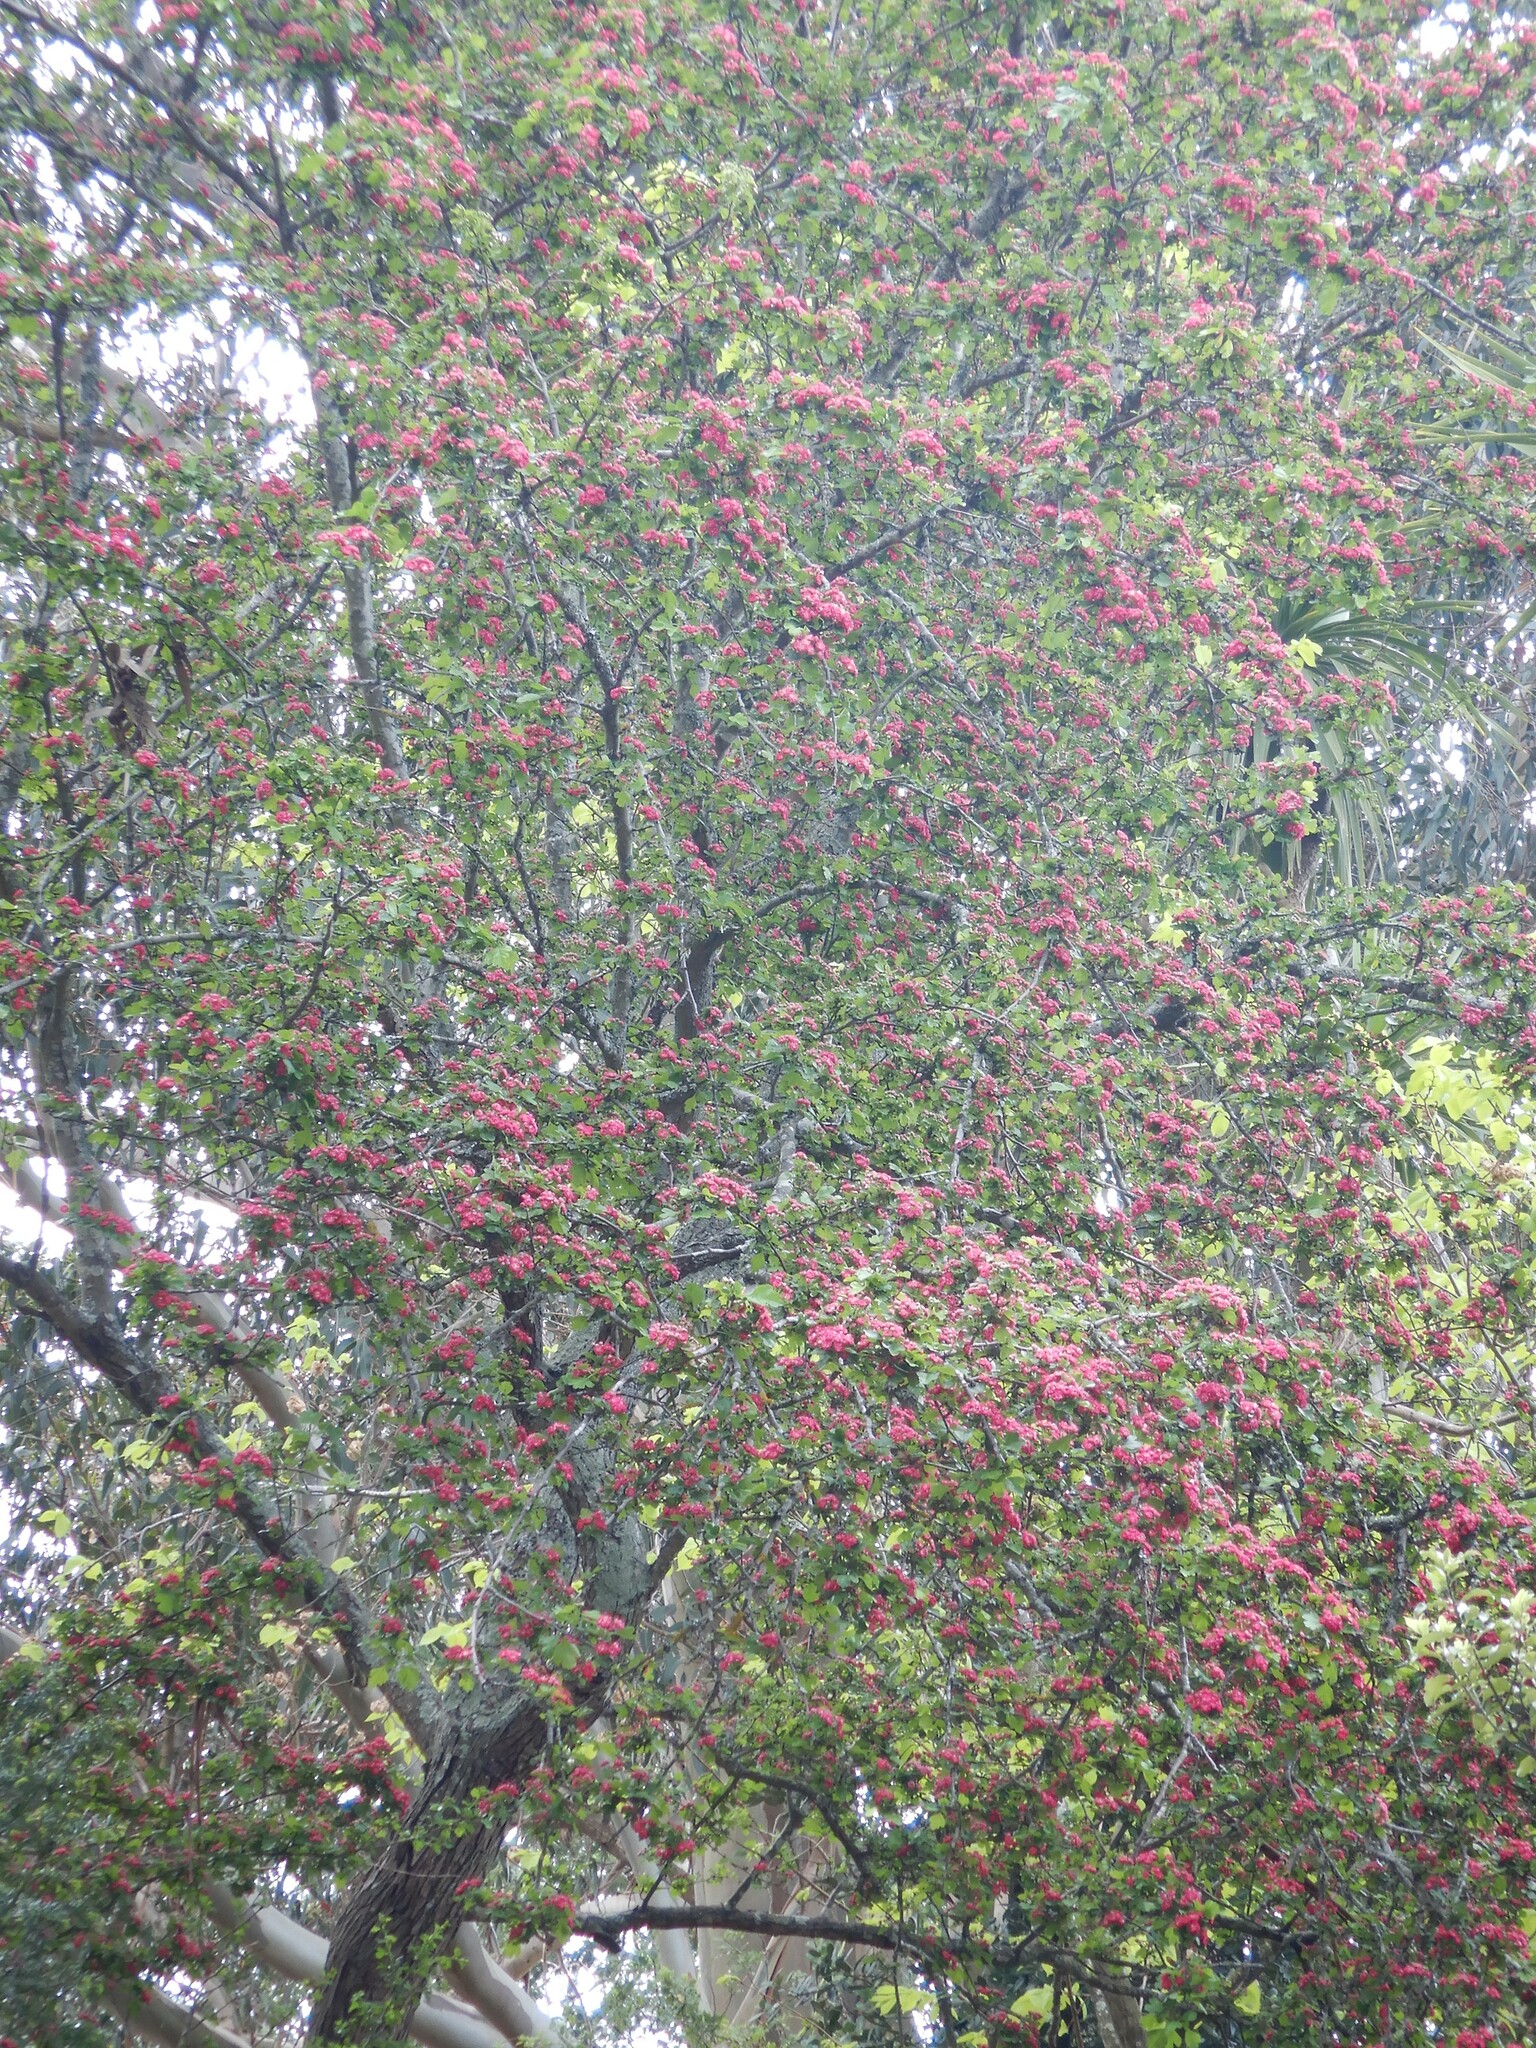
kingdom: Plantae
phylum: Tracheophyta
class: Magnoliopsida
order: Rosales
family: Rosaceae
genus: Prunus
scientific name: Prunus cerasifera
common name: Cherry plum
